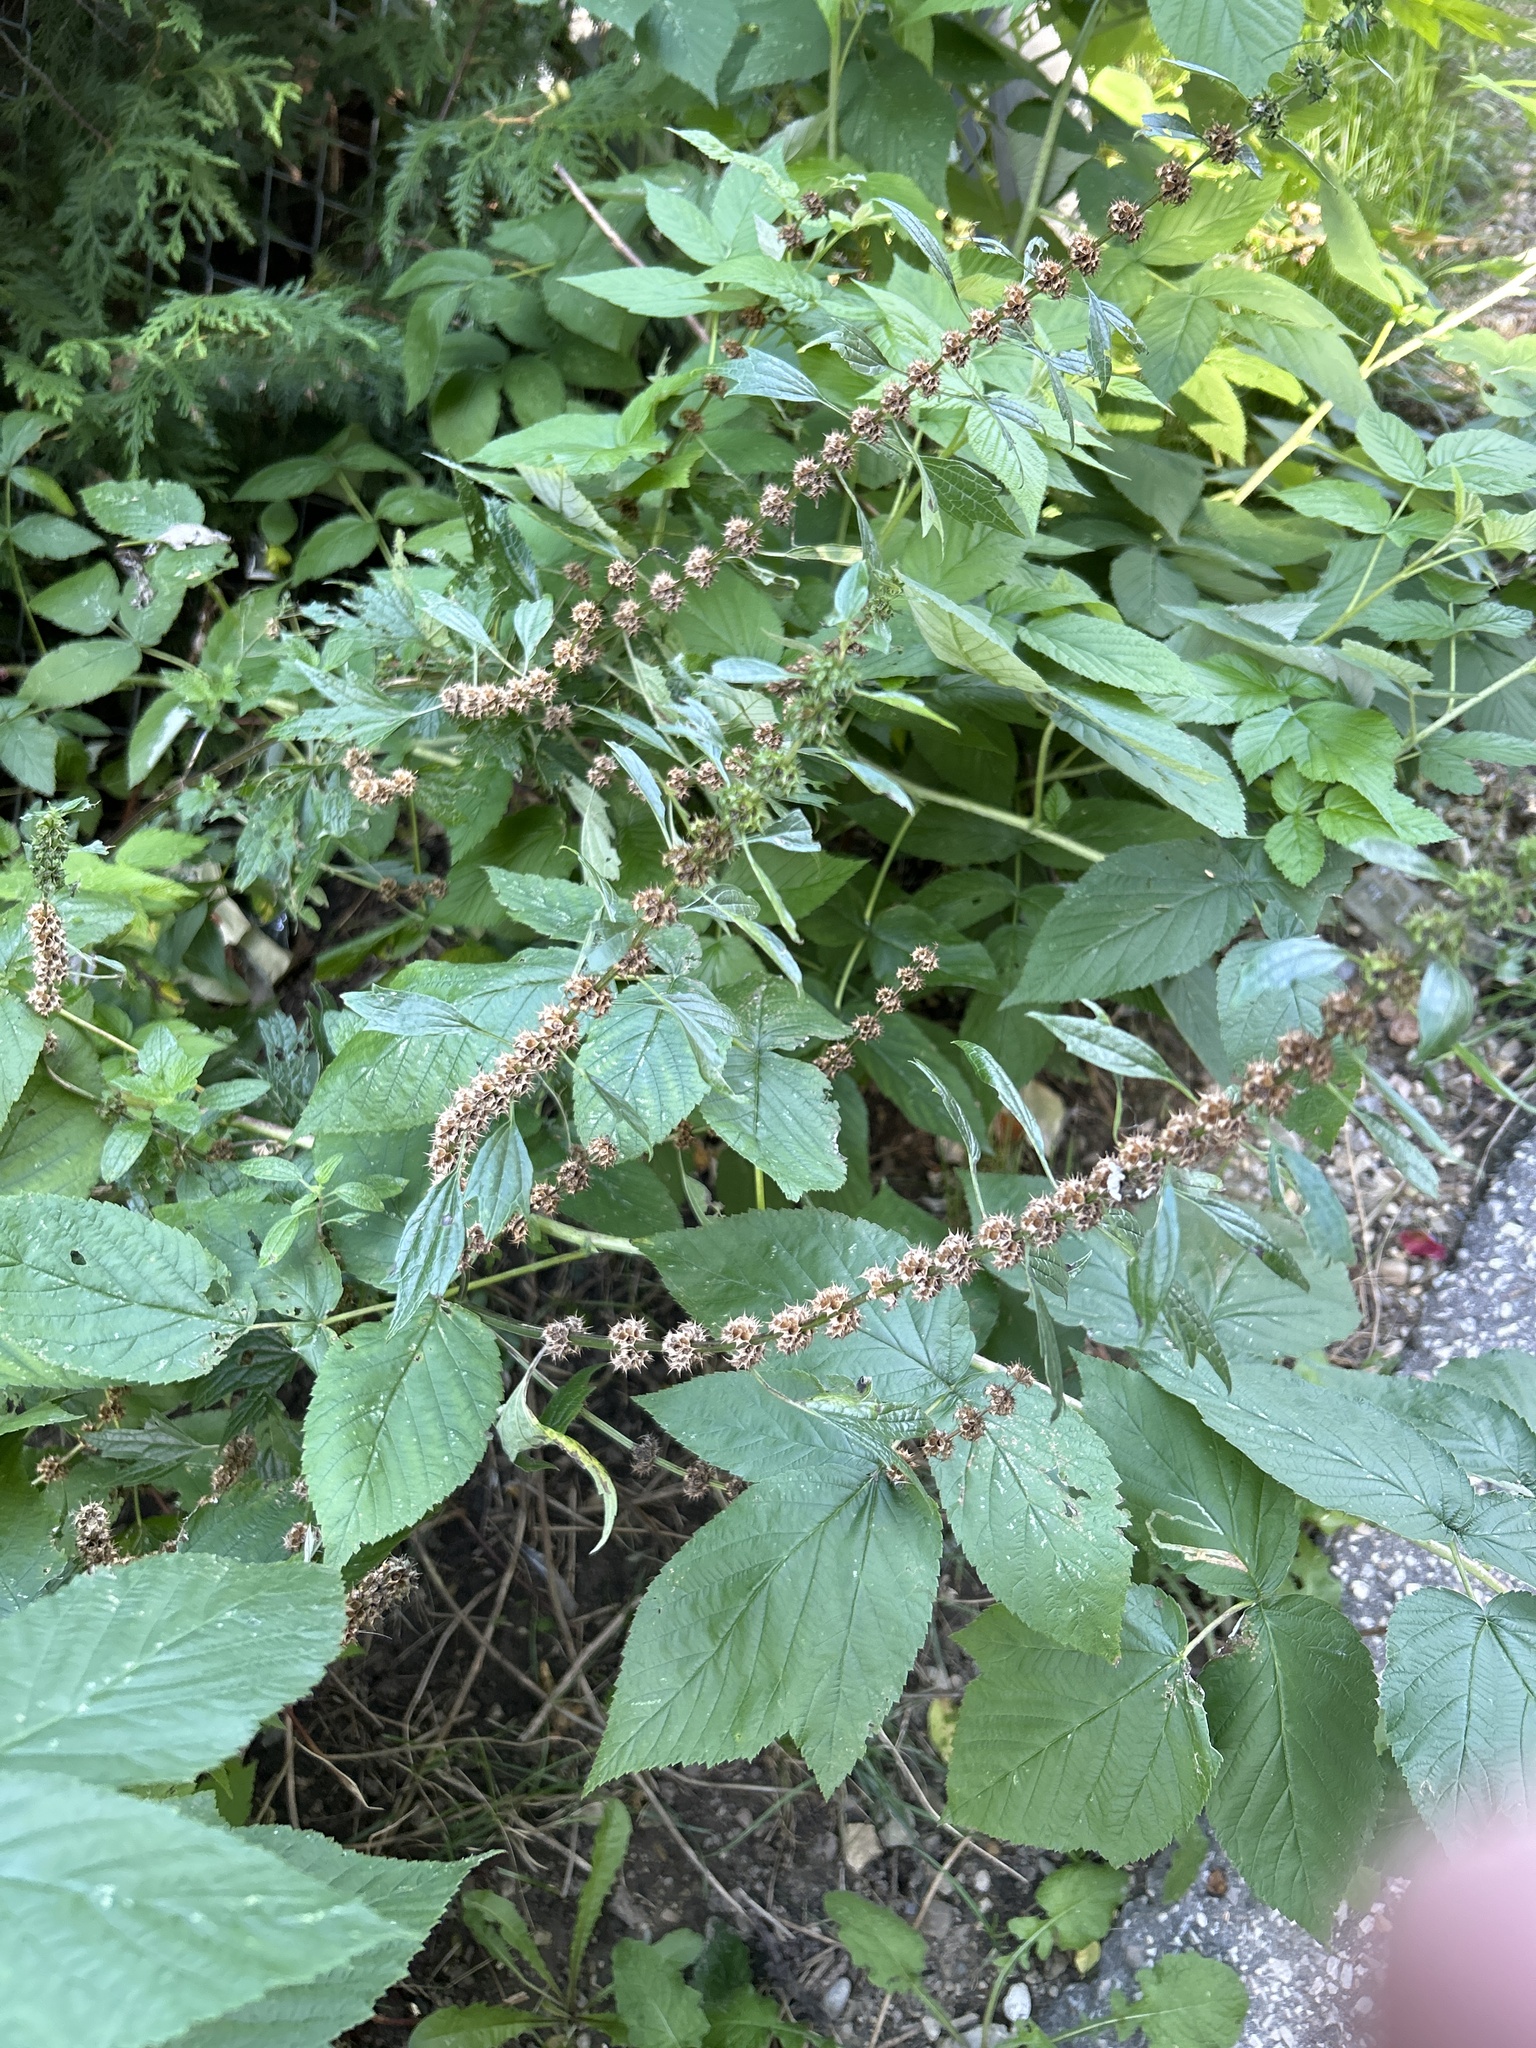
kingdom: Plantae
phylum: Tracheophyta
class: Magnoliopsida
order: Lamiales
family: Lamiaceae
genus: Leonurus
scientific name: Leonurus cardiaca
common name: Motherwort
